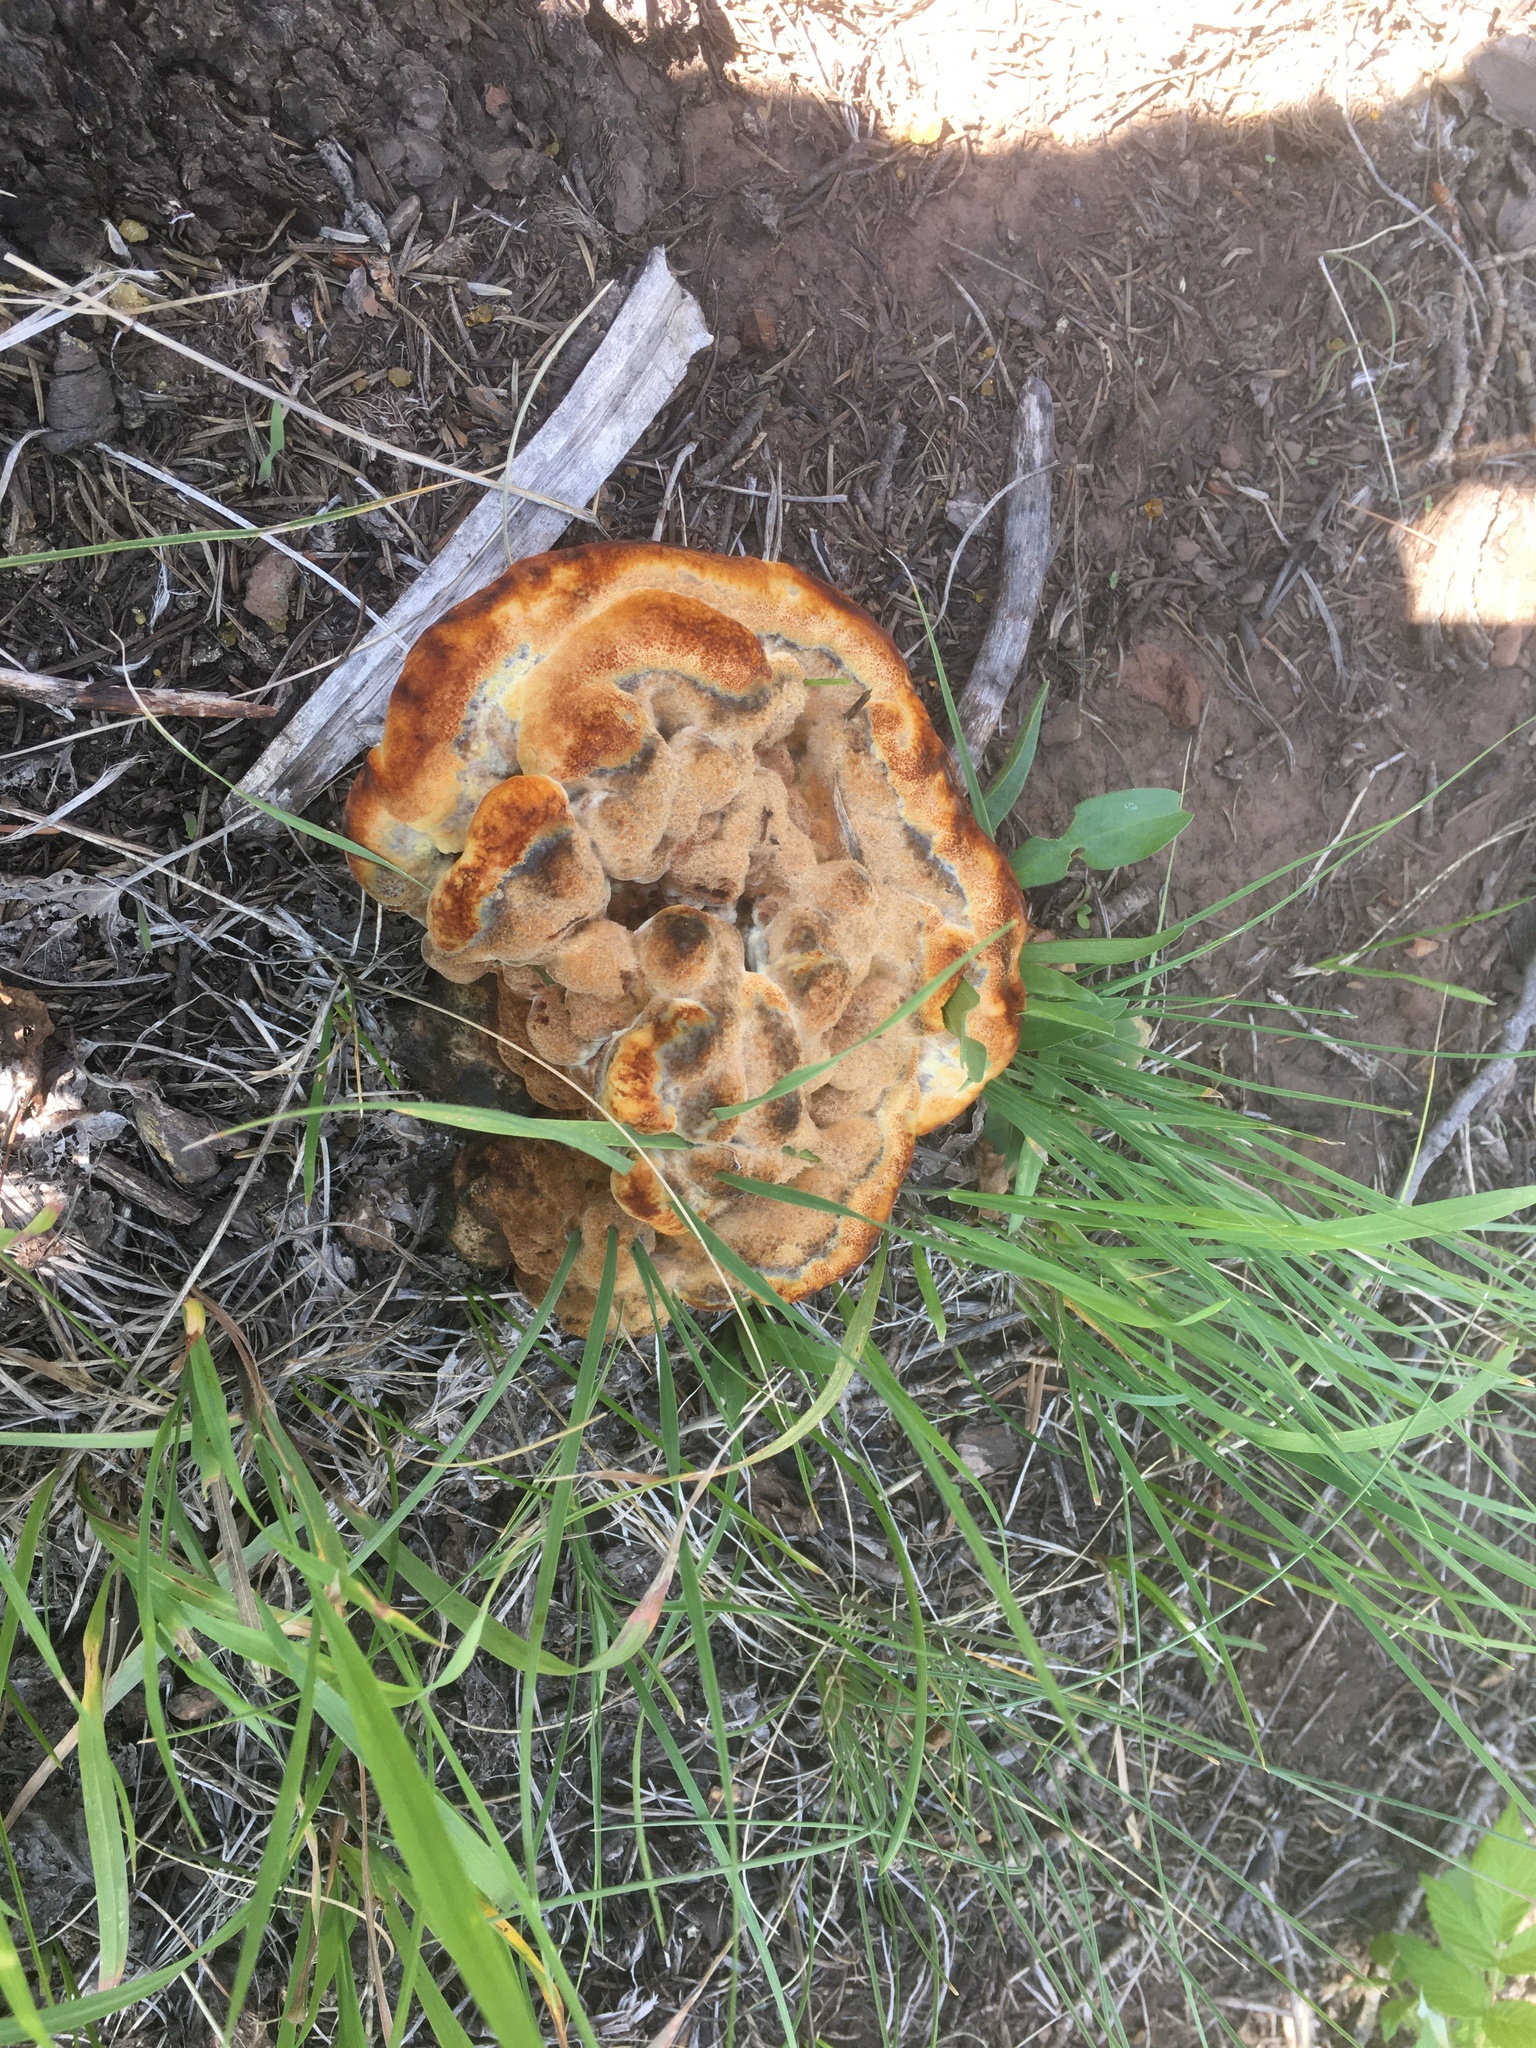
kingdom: Fungi
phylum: Basidiomycota
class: Agaricomycetes
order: Polyporales
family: Laetiporaceae
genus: Phaeolus
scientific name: Phaeolus schweinitzii
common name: Dyer's mazegill
